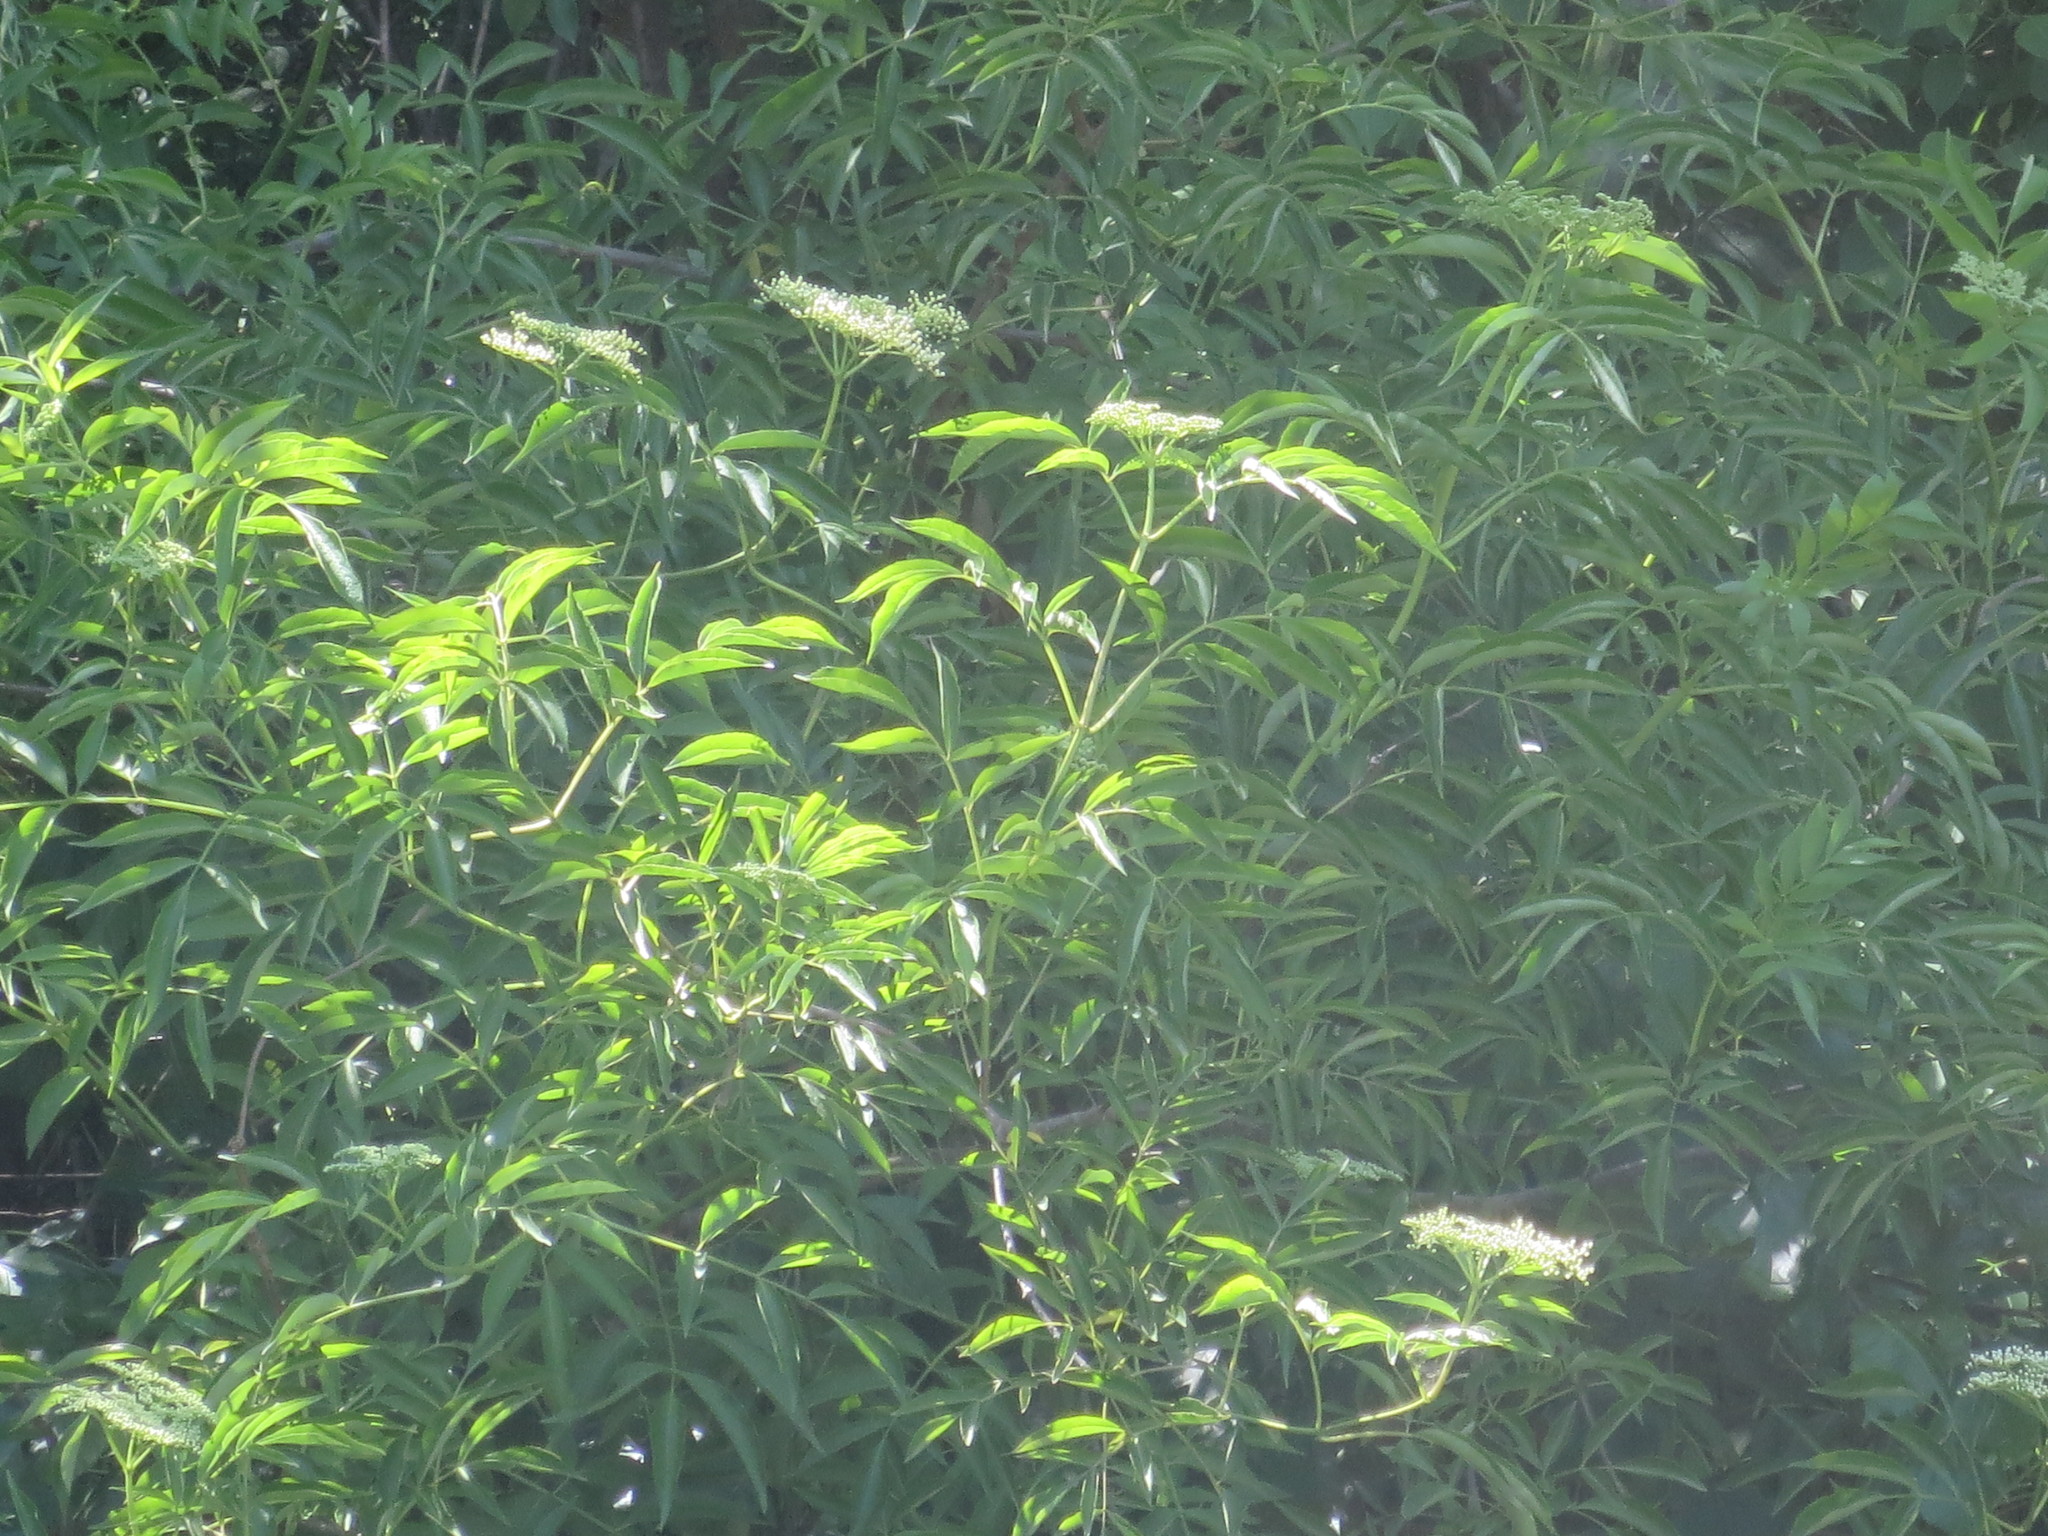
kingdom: Plantae
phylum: Tracheophyta
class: Magnoliopsida
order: Dipsacales
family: Viburnaceae
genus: Sambucus
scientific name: Sambucus canadensis
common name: American elder
